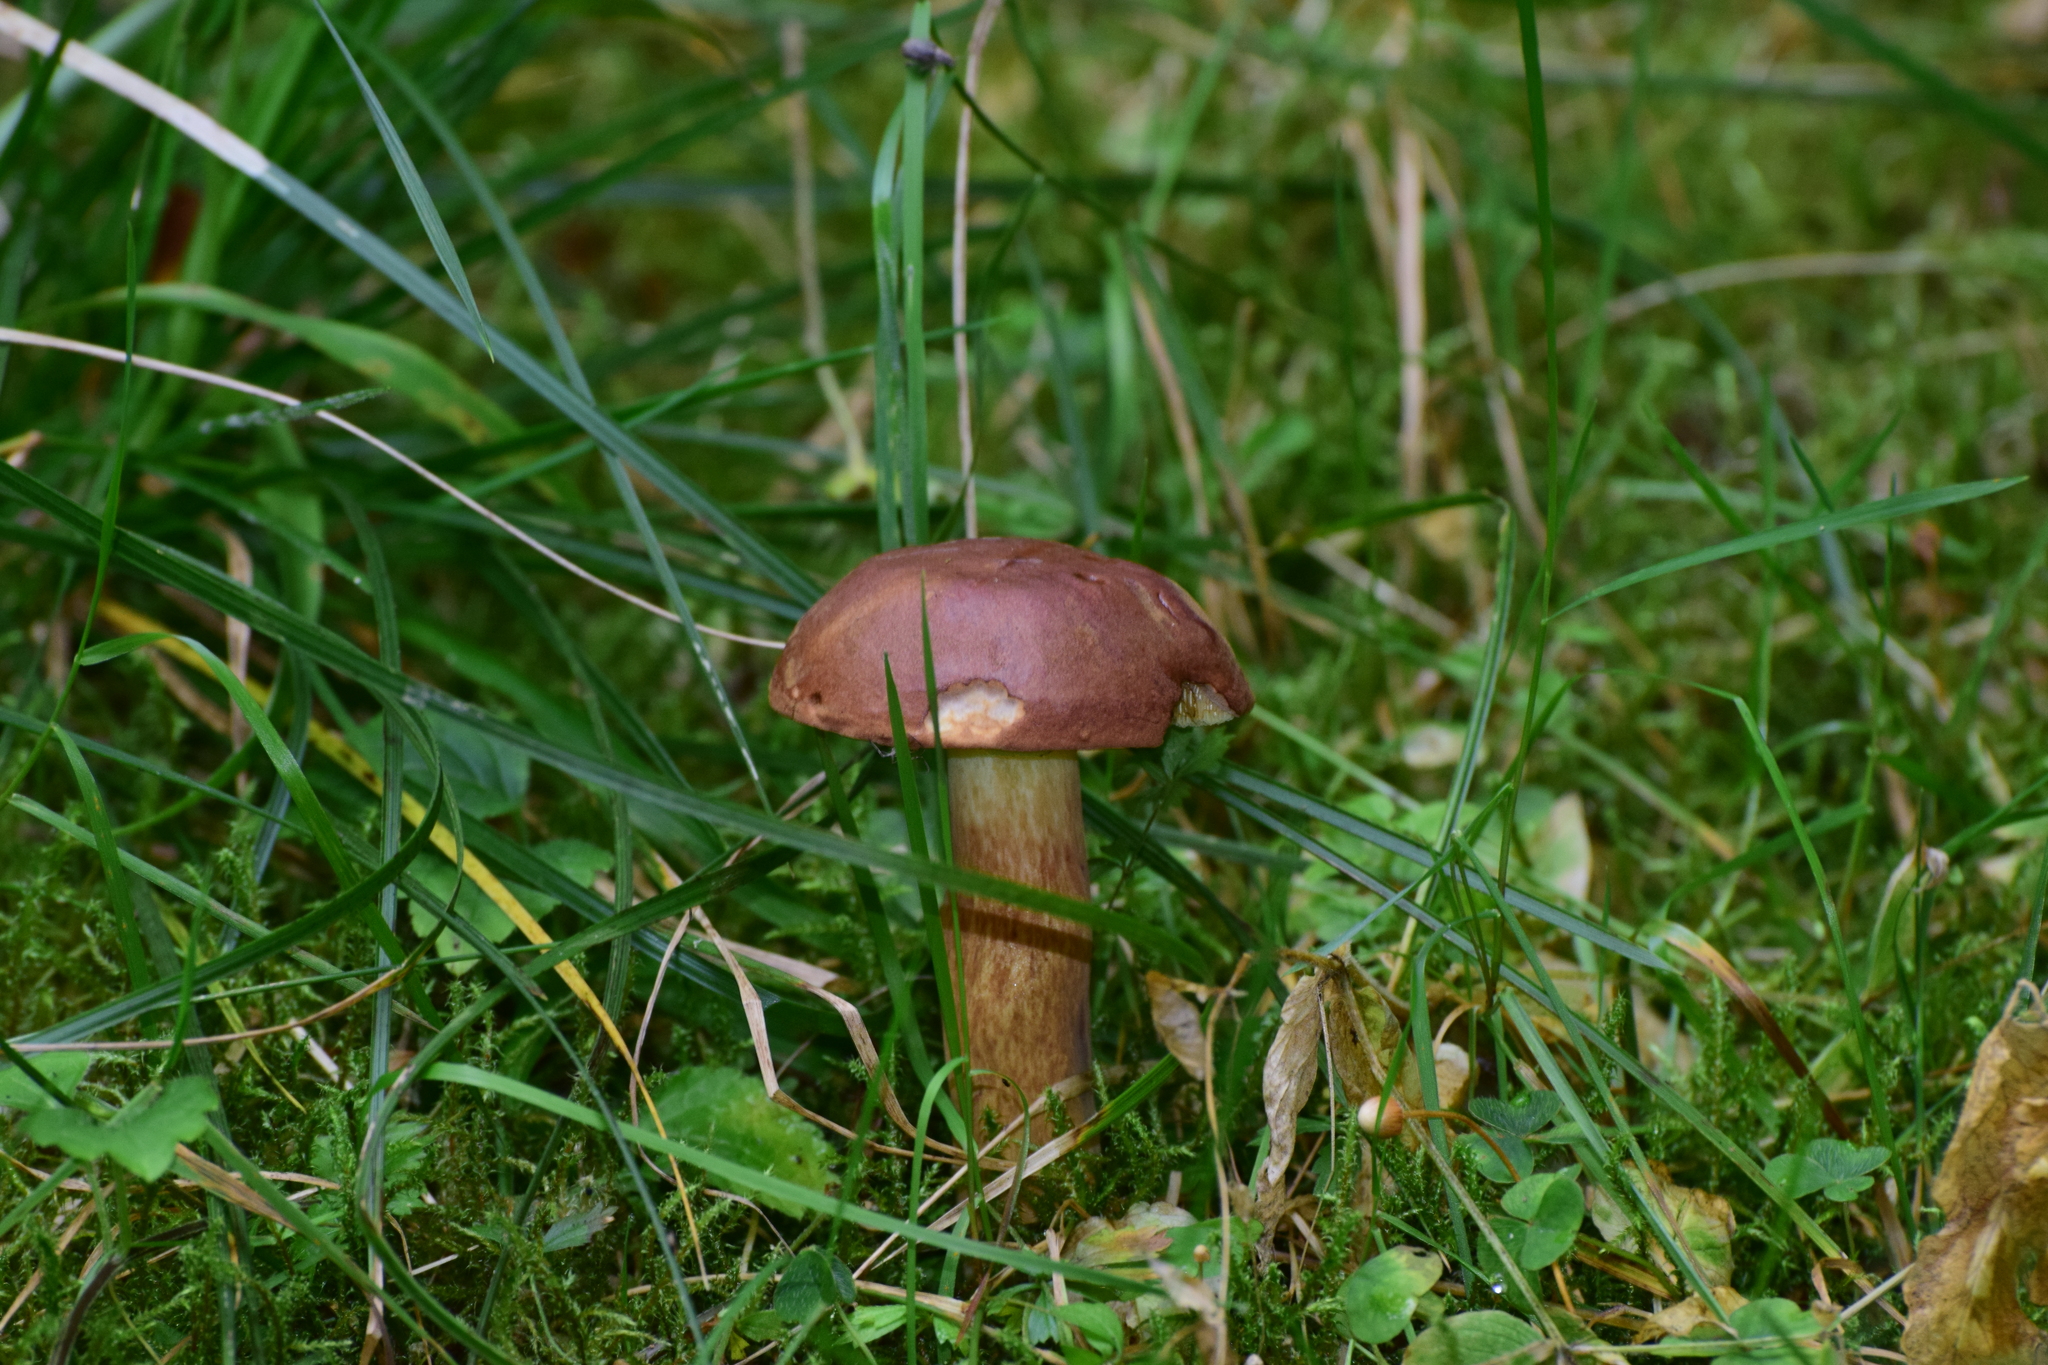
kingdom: Fungi
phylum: Basidiomycota
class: Agaricomycetes
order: Boletales
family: Boletaceae
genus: Imleria
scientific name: Imleria badia
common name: Bay bolete
